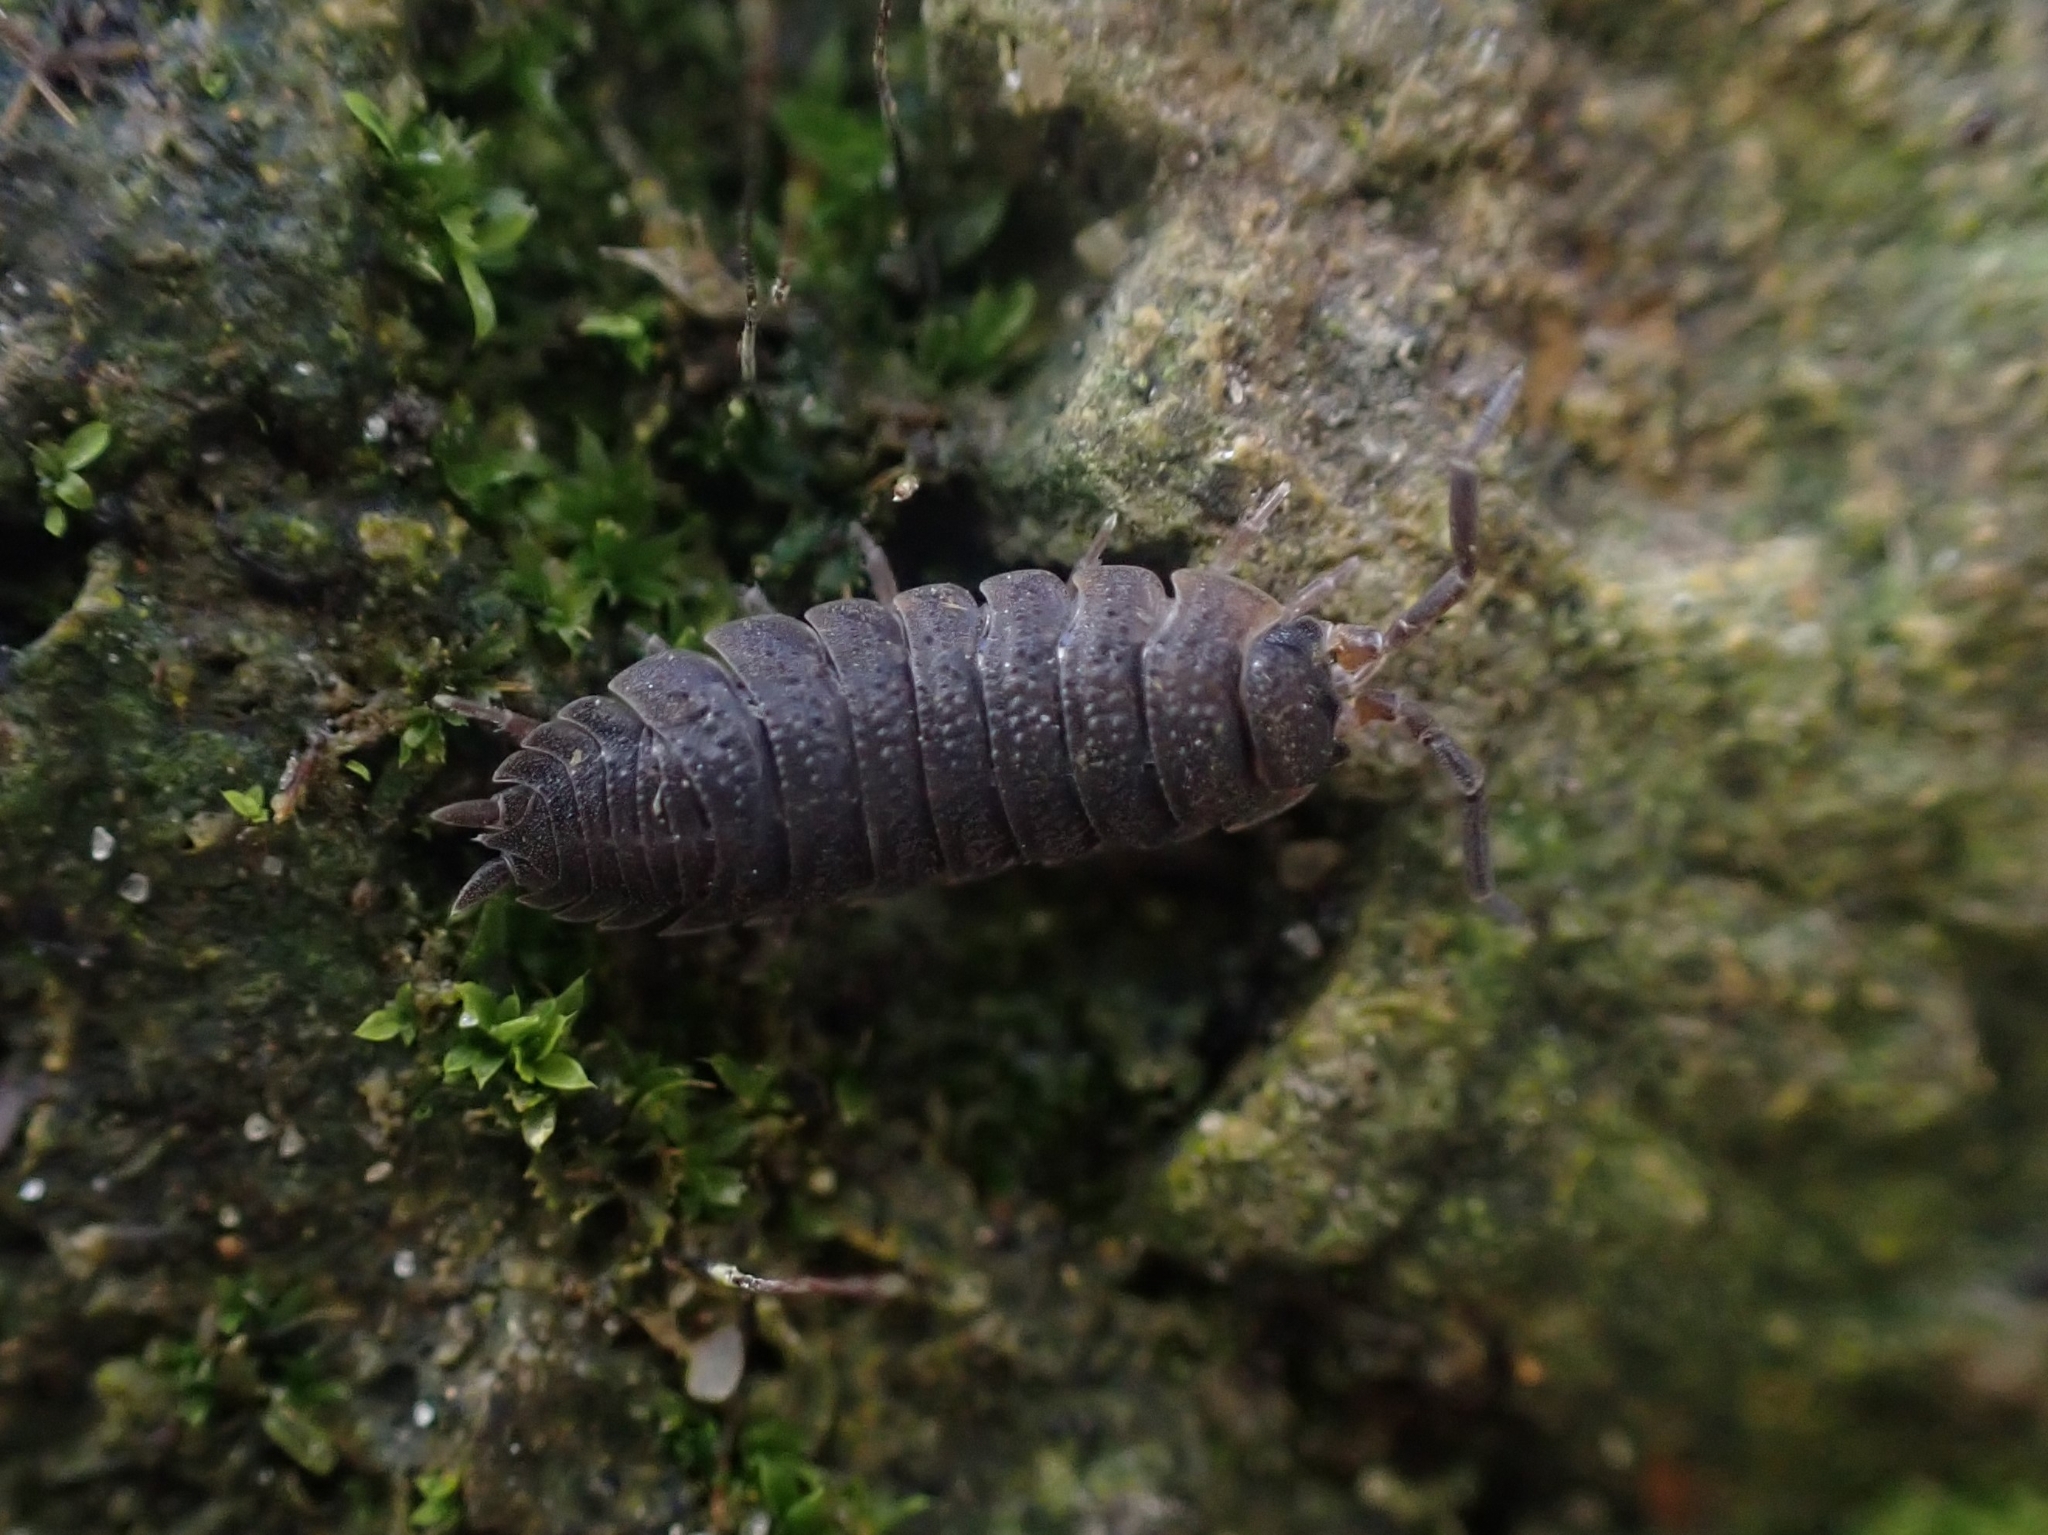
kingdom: Animalia
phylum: Arthropoda
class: Malacostraca
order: Isopoda
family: Porcellionidae
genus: Porcellio
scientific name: Porcellio scaber
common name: Common rough woodlouse
